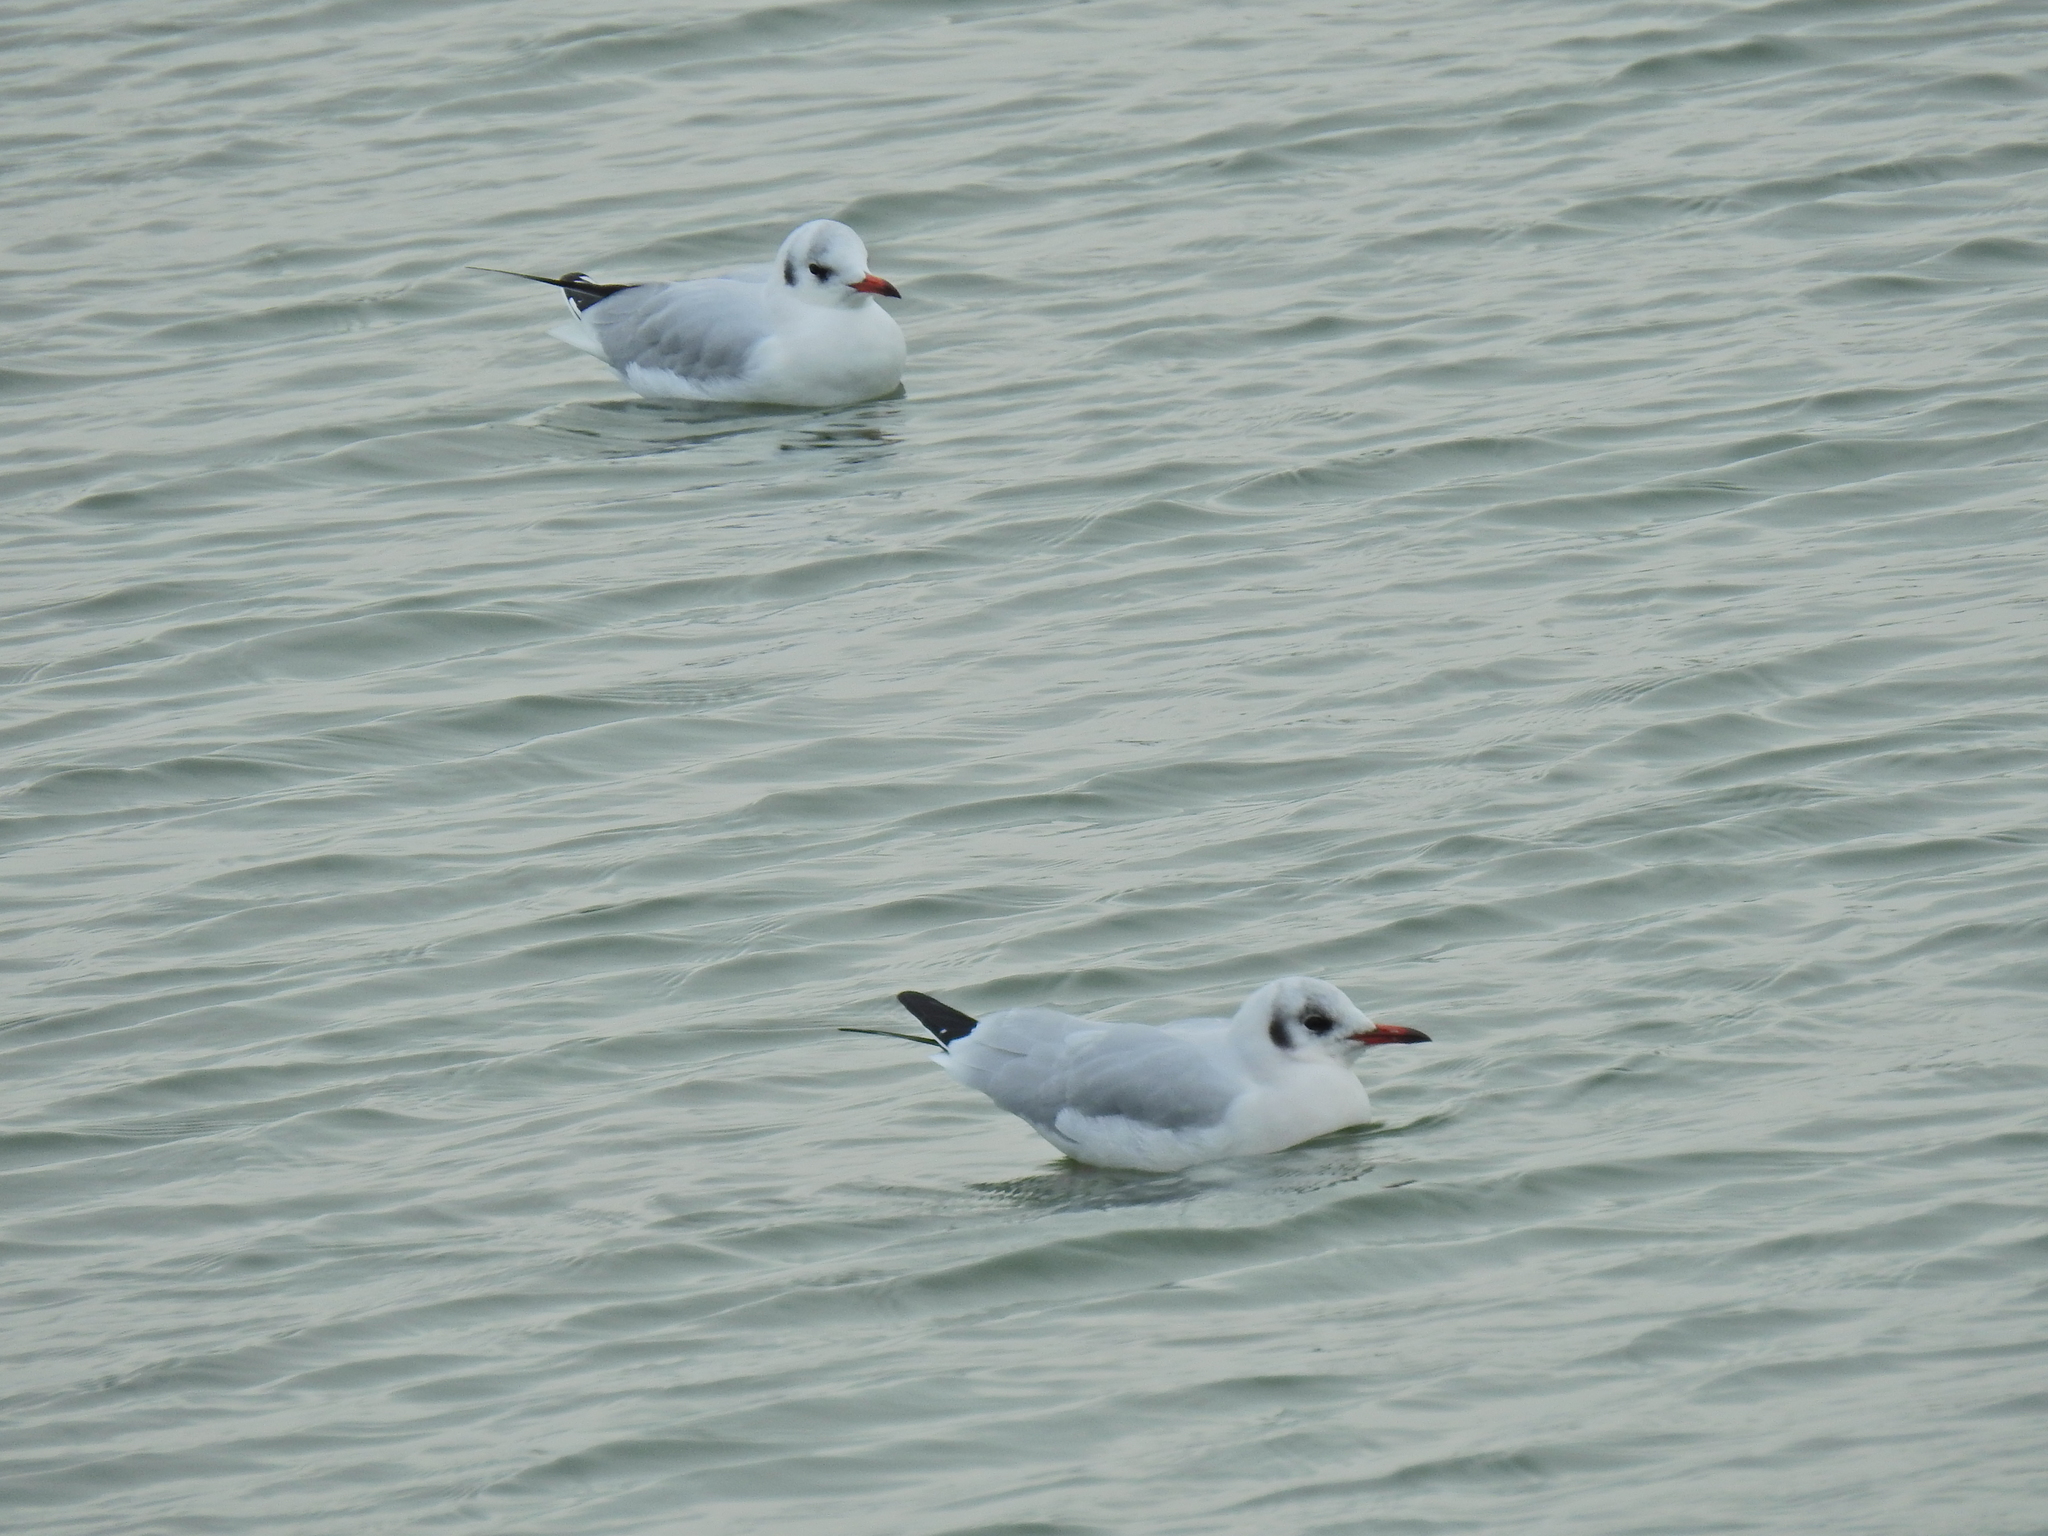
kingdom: Animalia
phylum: Chordata
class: Aves
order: Charadriiformes
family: Laridae
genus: Chroicocephalus
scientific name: Chroicocephalus ridibundus
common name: Black-headed gull
